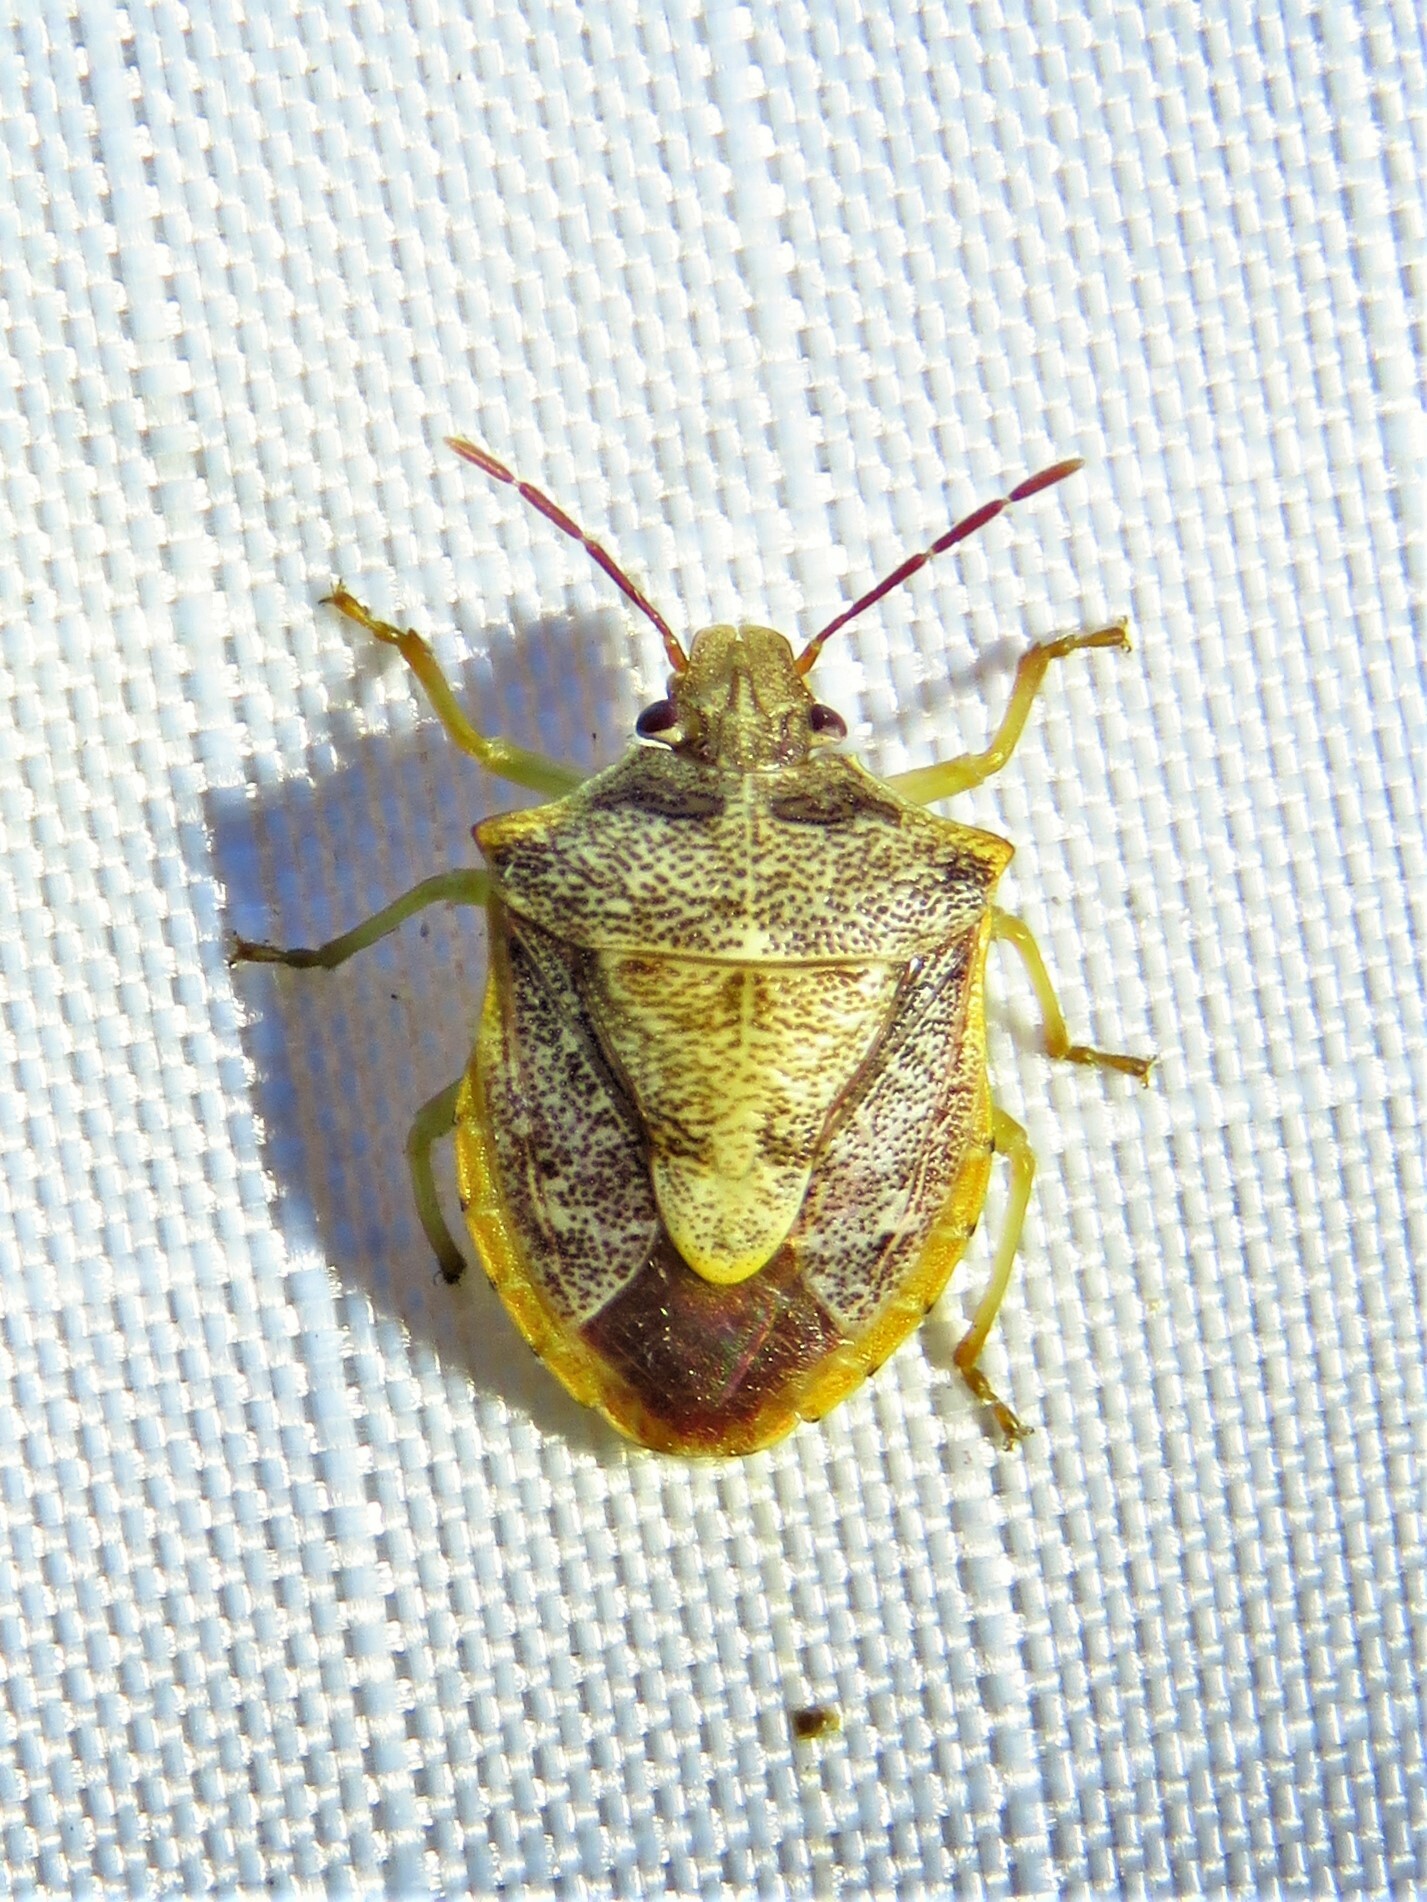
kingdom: Animalia
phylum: Arthropoda
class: Insecta
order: Hemiptera
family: Pentatomidae
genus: Dendrocoris
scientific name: Dendrocoris humeralis
